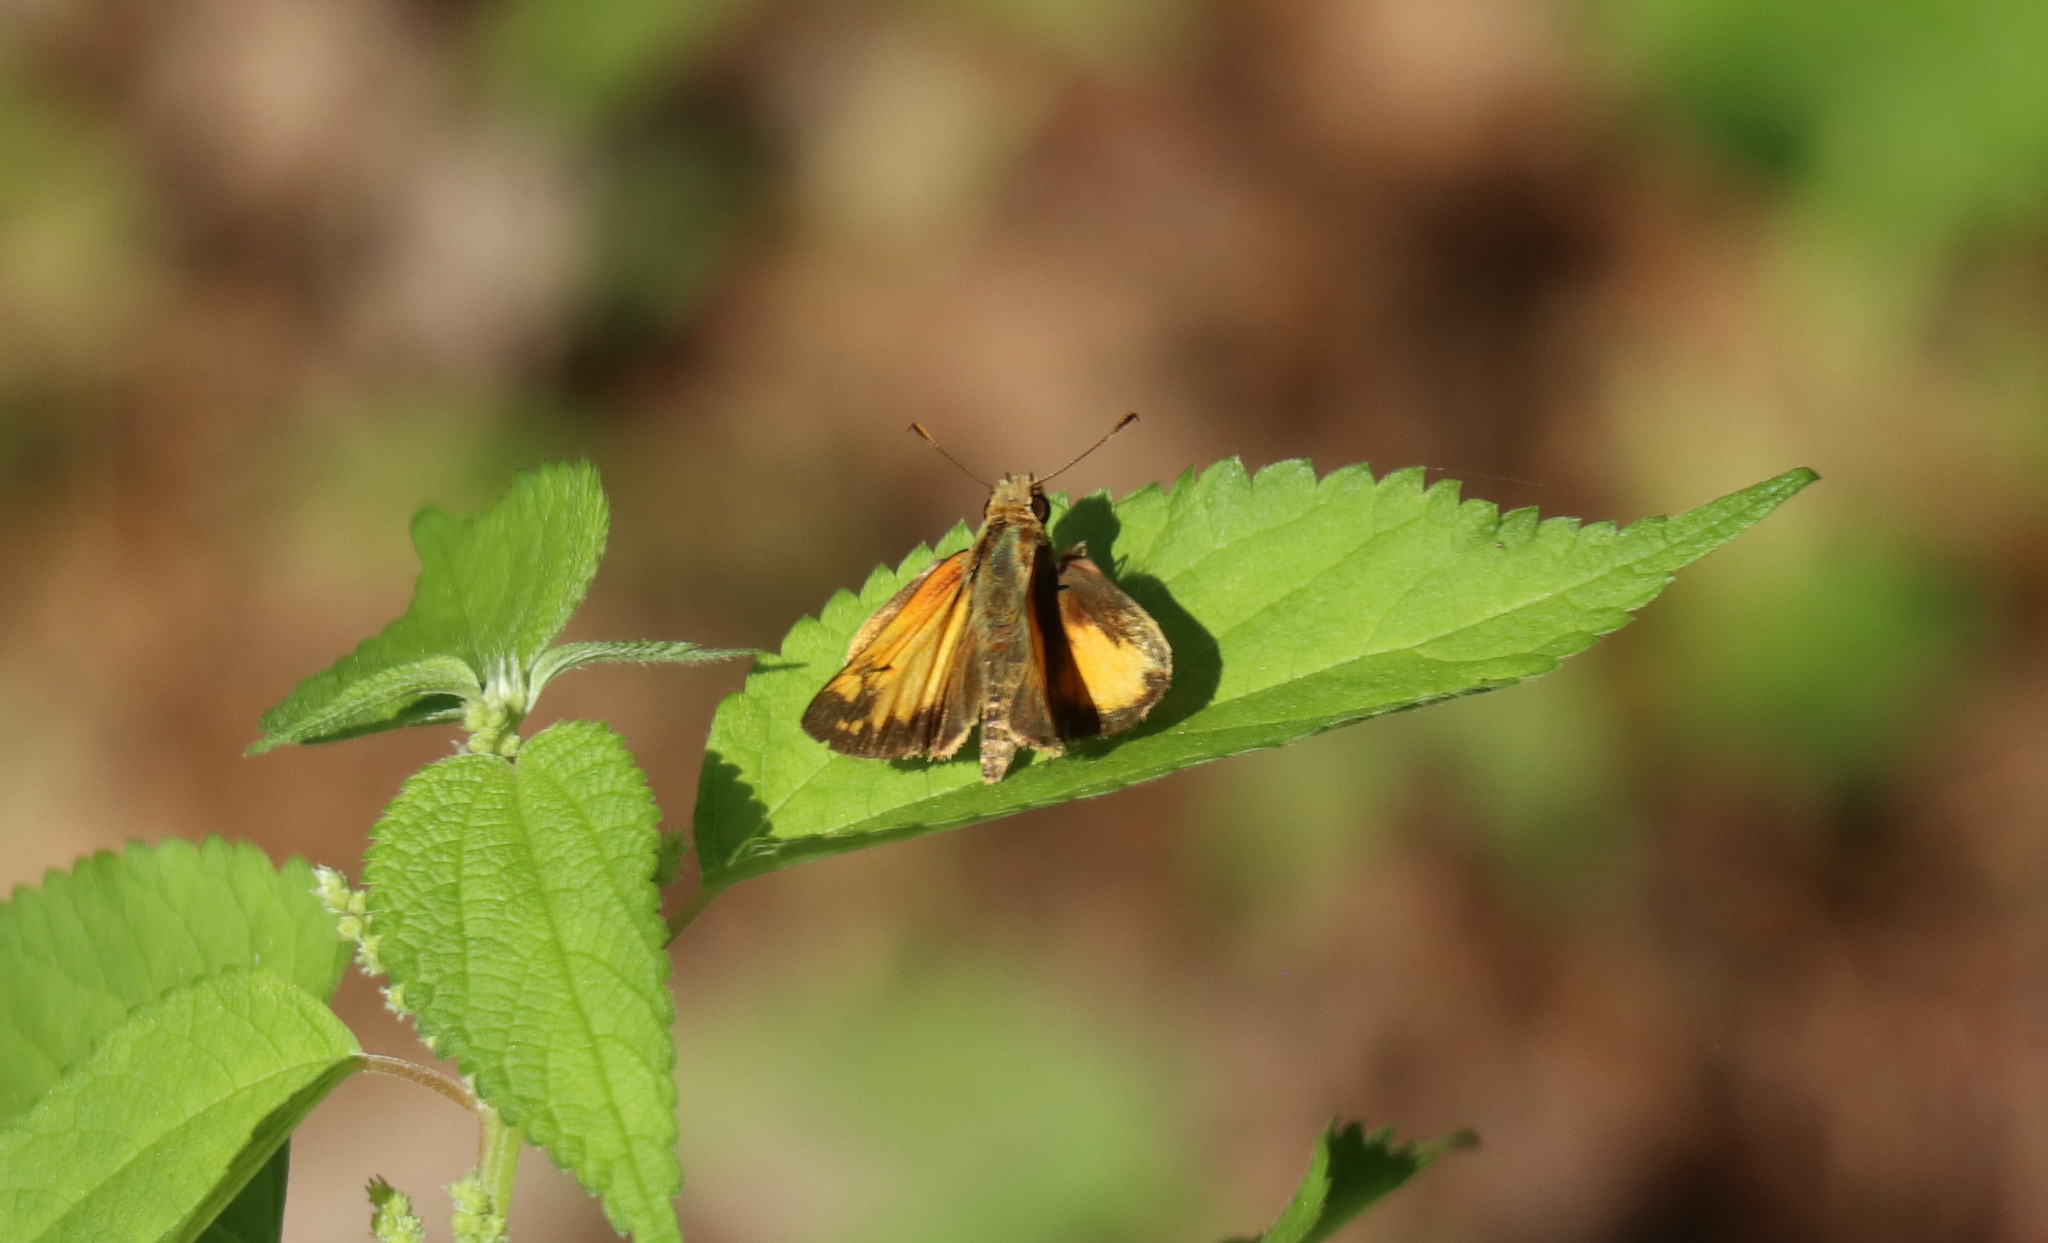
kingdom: Animalia
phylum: Arthropoda
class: Insecta
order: Lepidoptera
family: Hesperiidae
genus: Lon
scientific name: Lon zabulon
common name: Zabulon skipper
